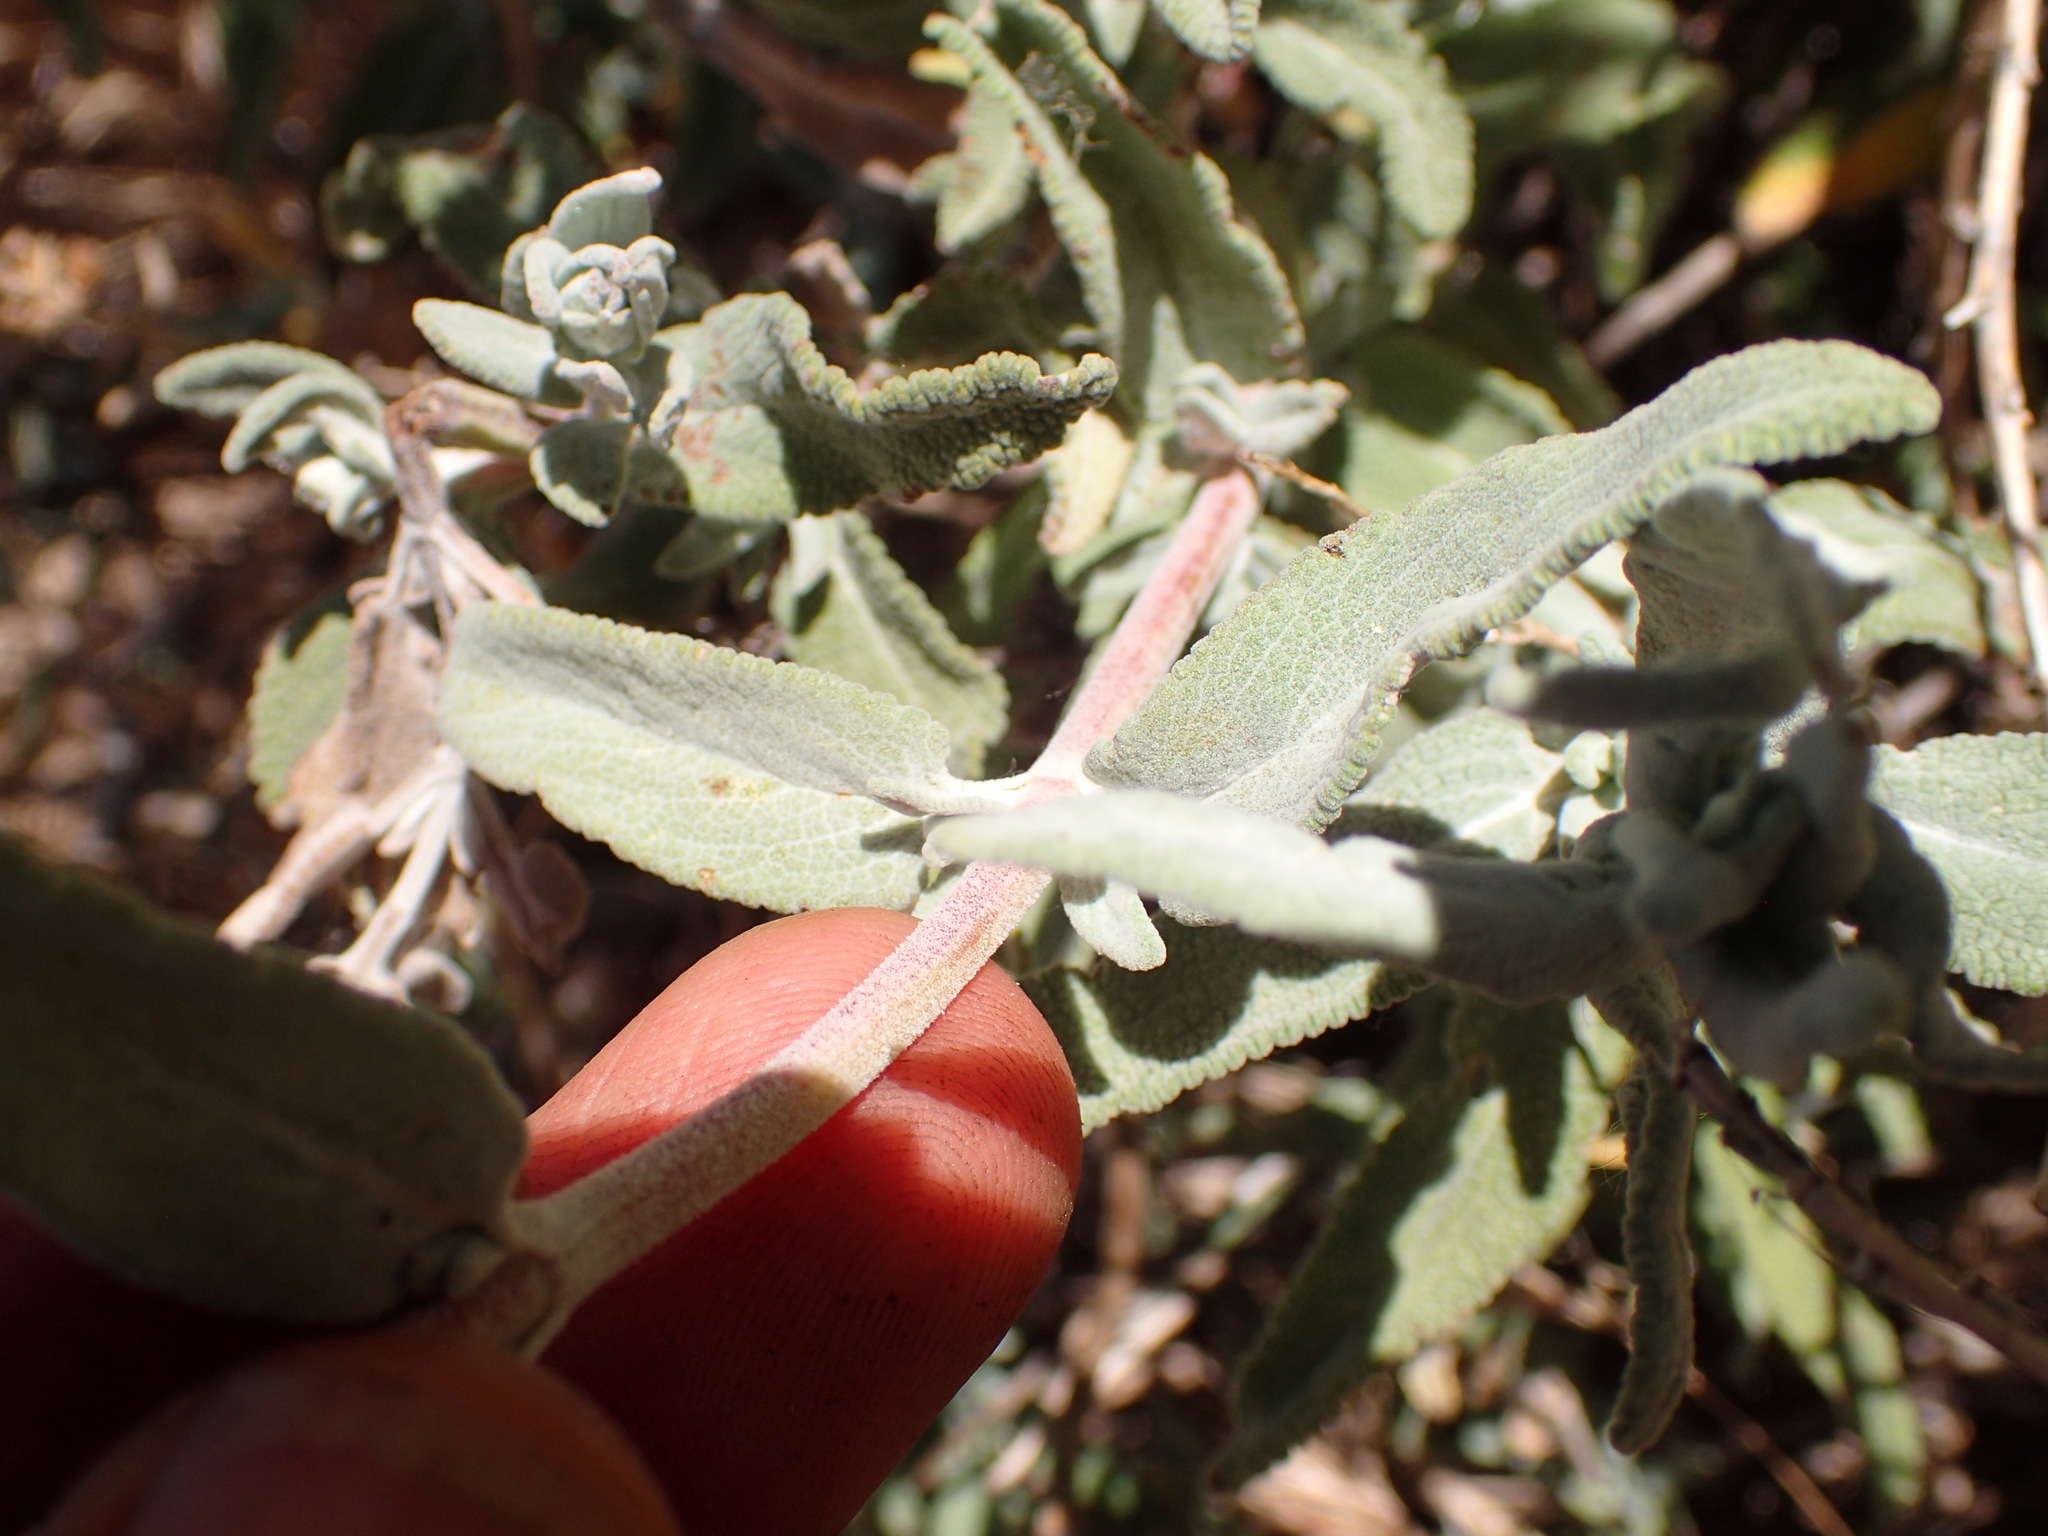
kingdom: Plantae
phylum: Tracheophyta
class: Magnoliopsida
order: Lamiales
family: Lamiaceae
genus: Salvia
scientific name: Salvia leucophylla
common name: Purple sage
